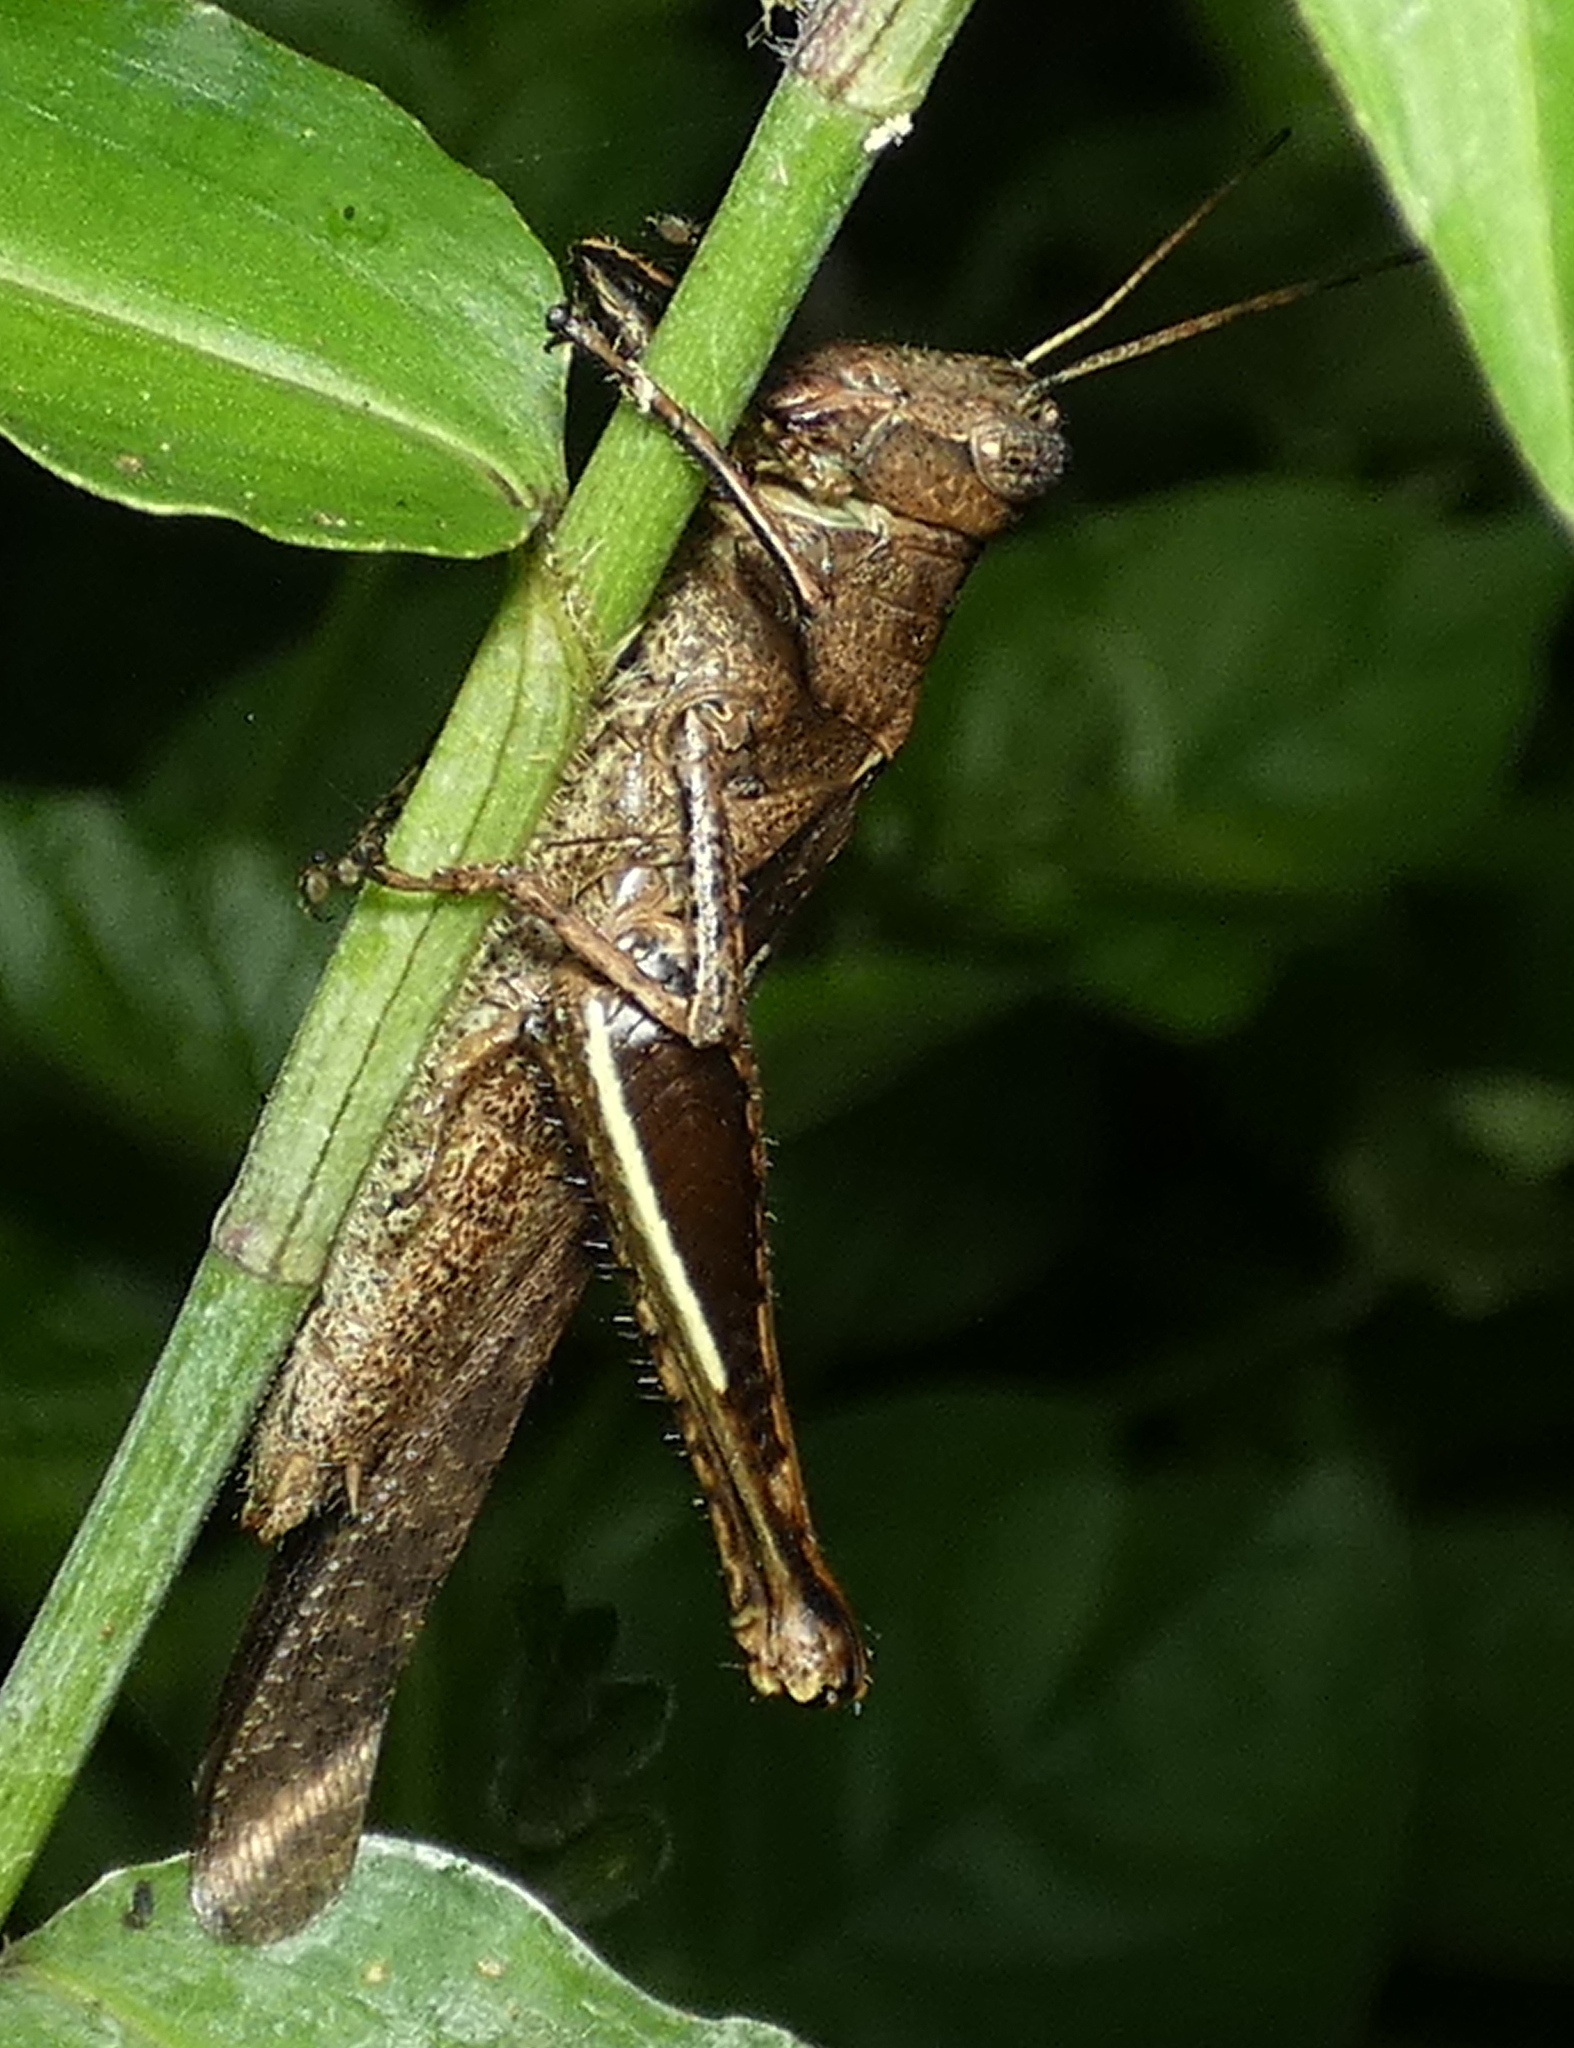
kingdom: Animalia
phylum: Arthropoda
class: Insecta
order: Orthoptera
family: Acrididae
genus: Abracris
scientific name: Abracris flavolineata
